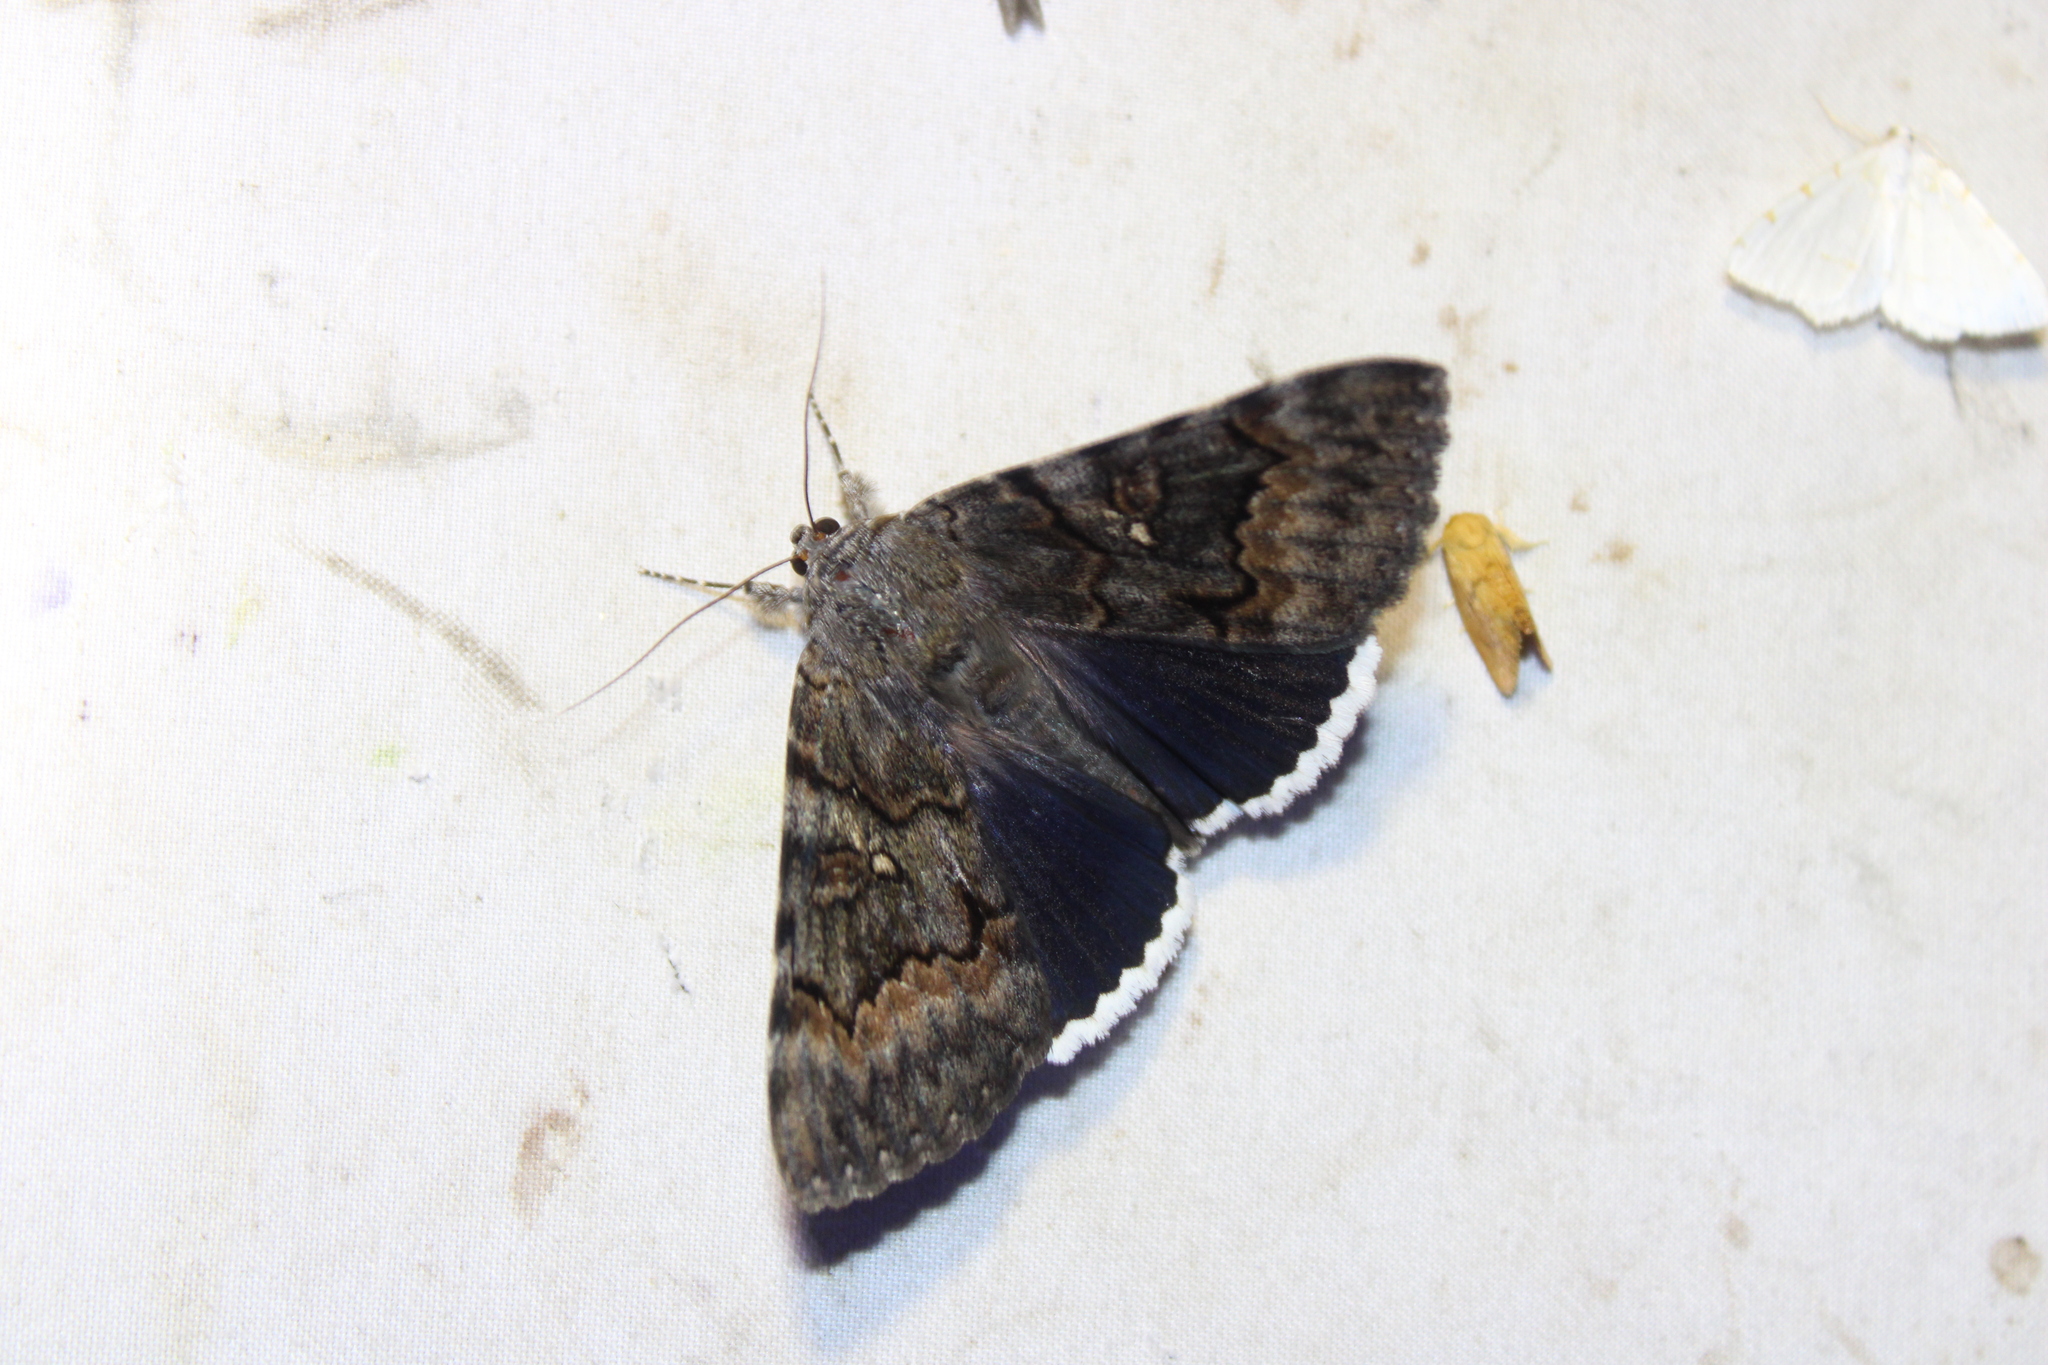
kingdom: Animalia
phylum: Arthropoda
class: Insecta
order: Lepidoptera
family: Erebidae
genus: Catocala
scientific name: Catocala epione
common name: Epione underwing
